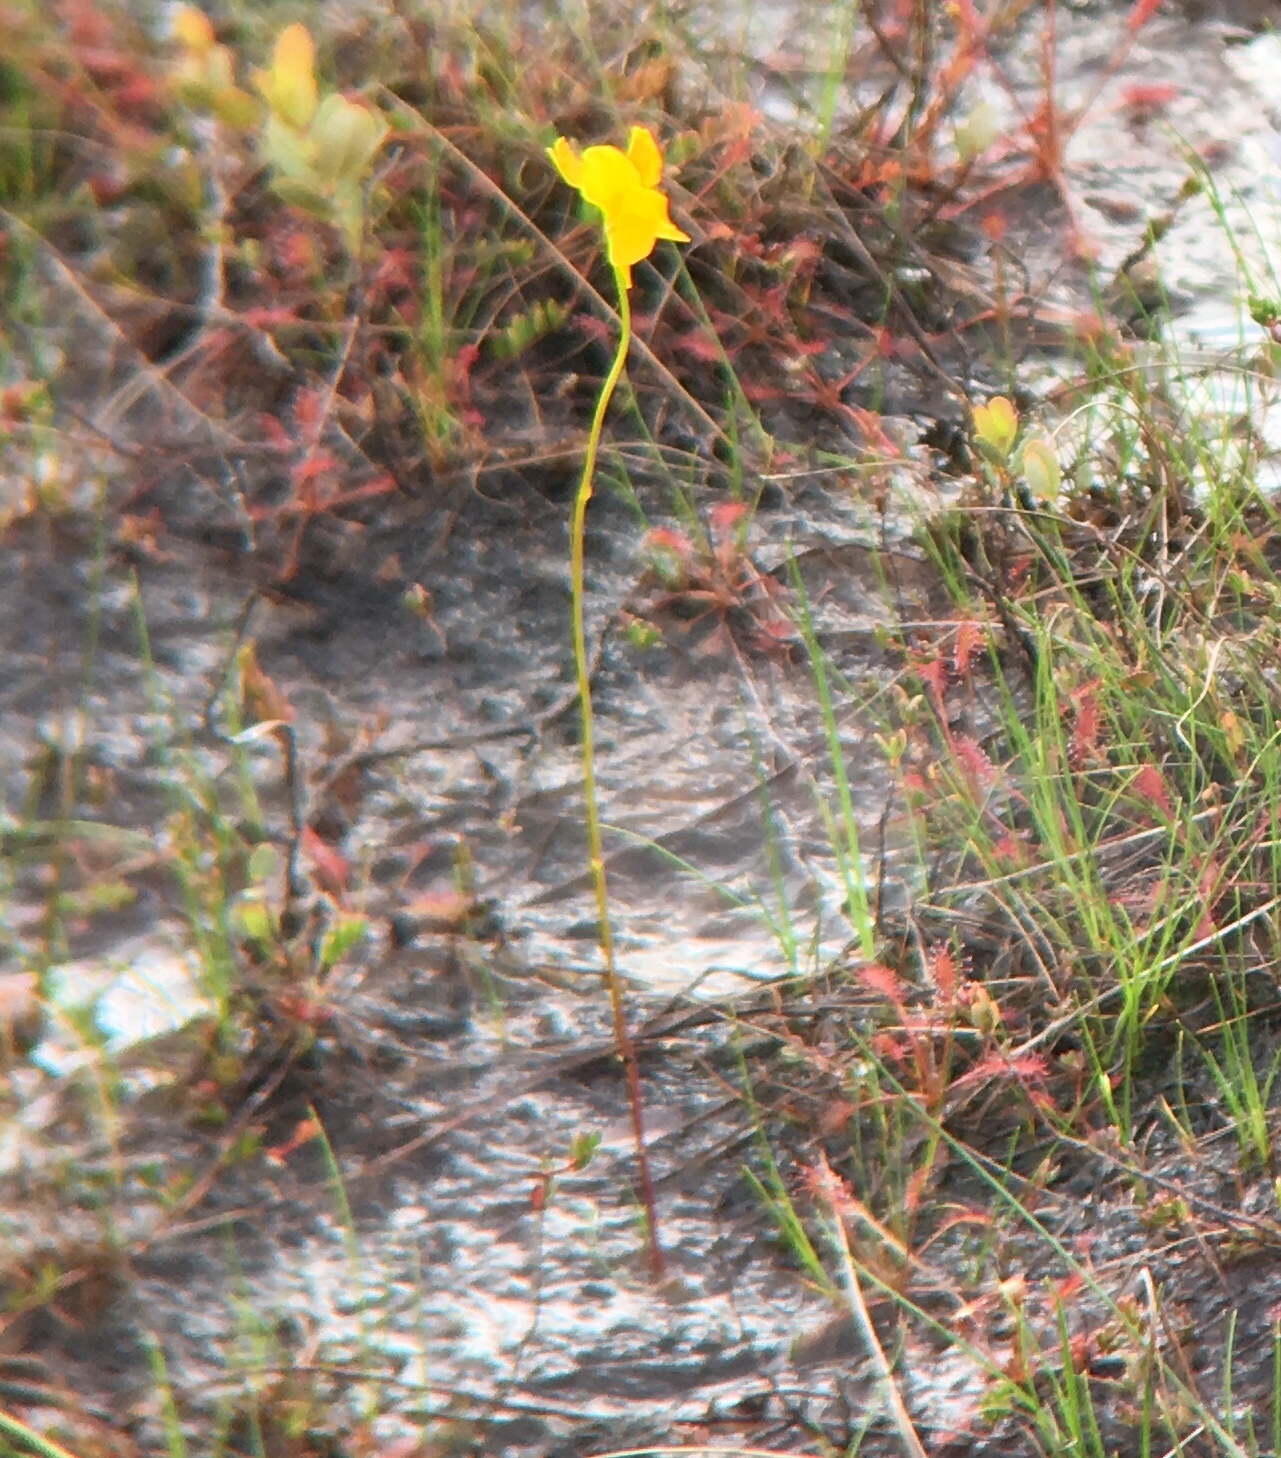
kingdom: Plantae
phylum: Tracheophyta
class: Magnoliopsida
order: Lamiales
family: Lentibulariaceae
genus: Utricularia
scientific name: Utricularia cornuta
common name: Horned bladderwort
